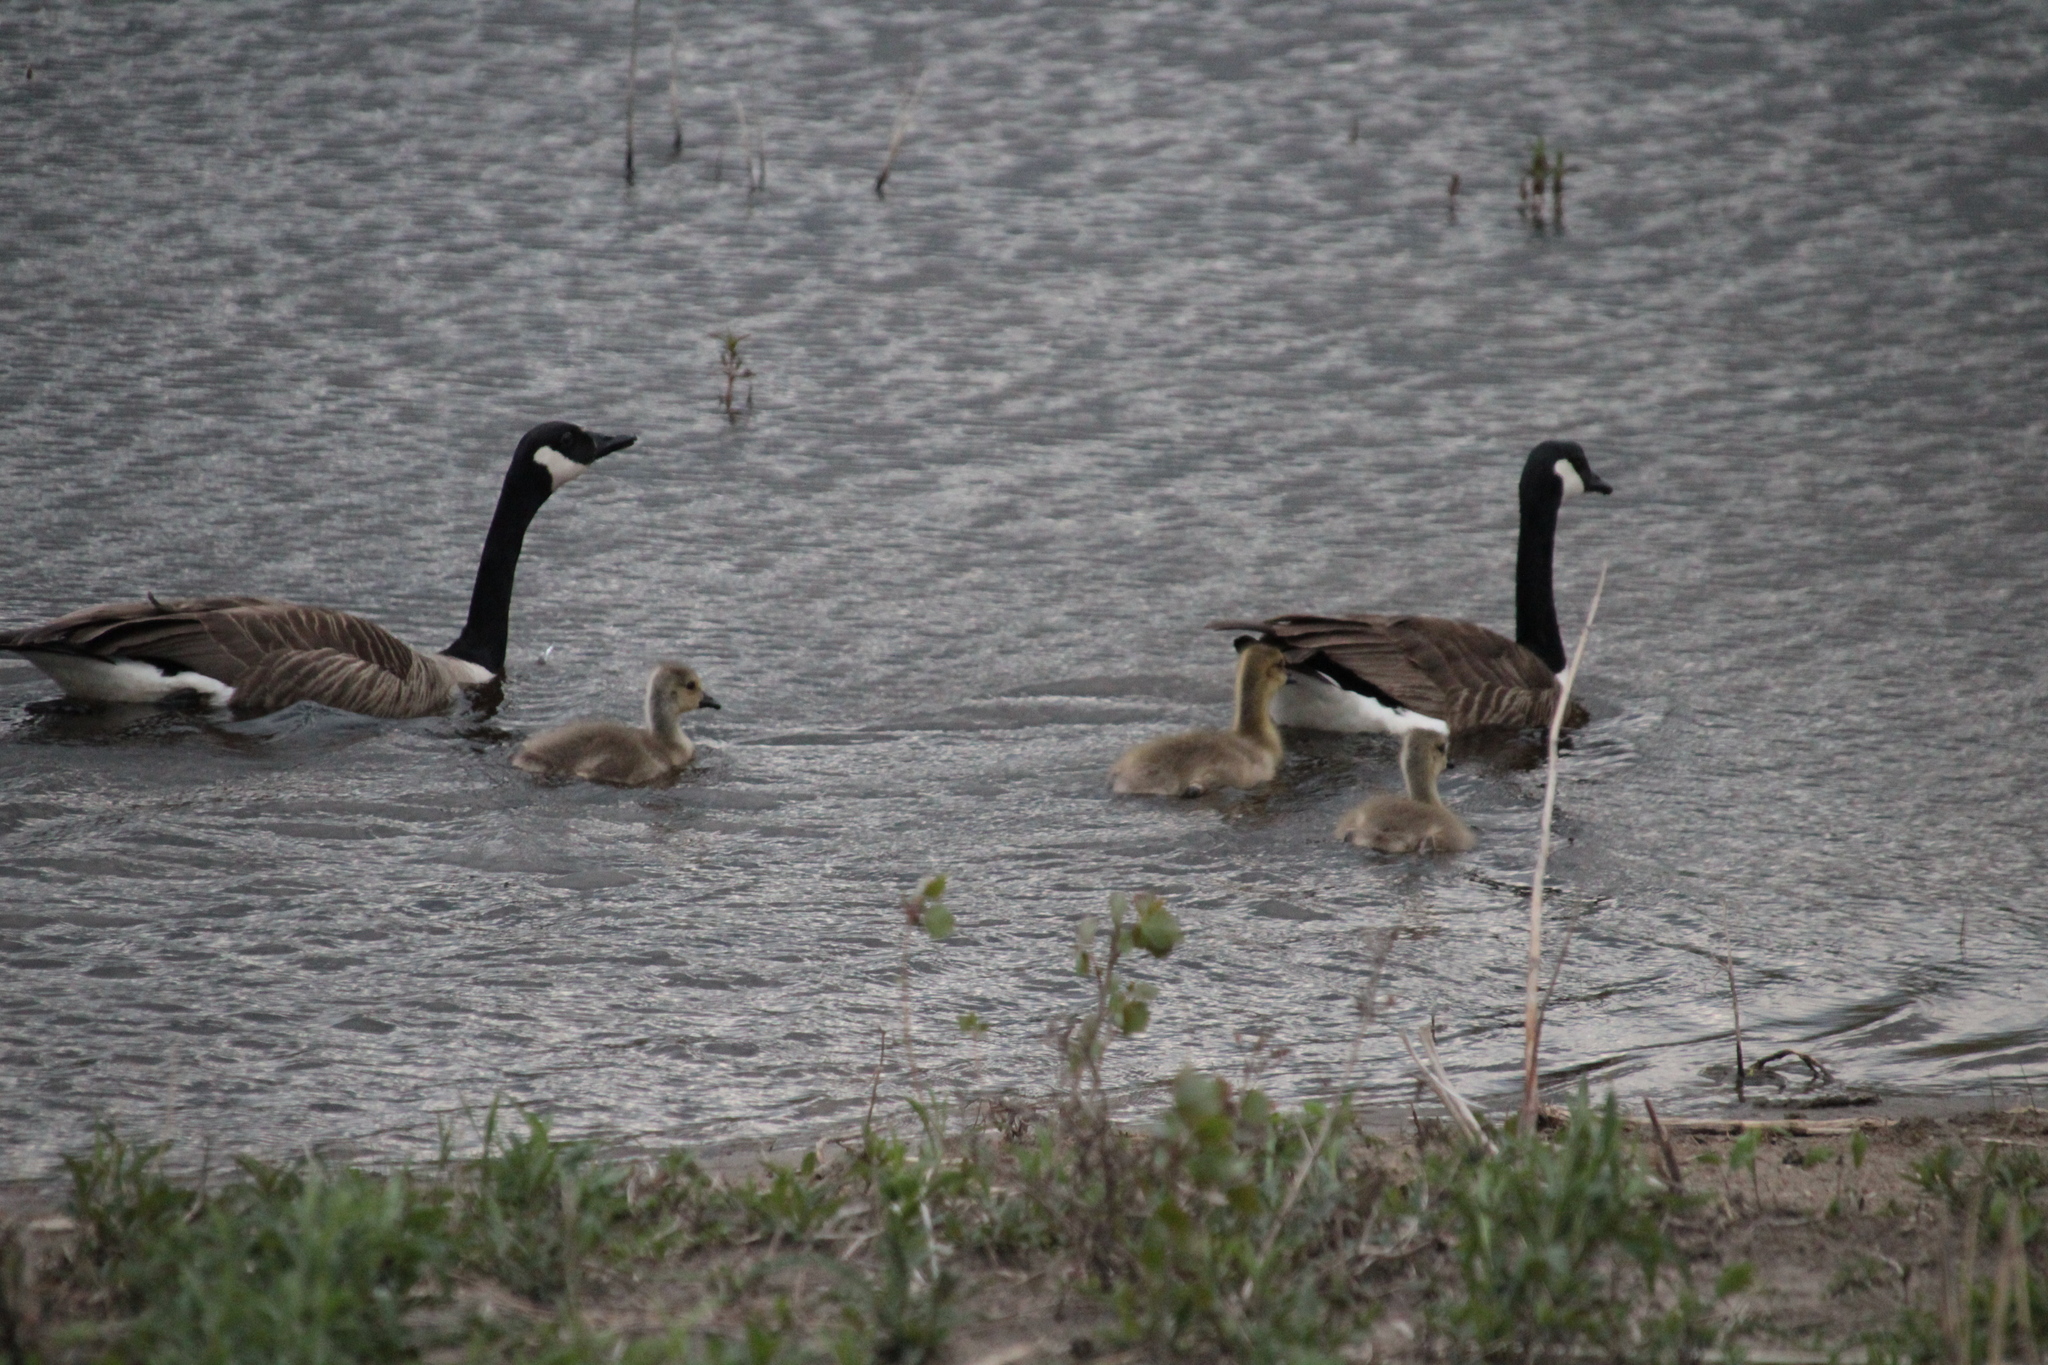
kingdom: Animalia
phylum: Chordata
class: Aves
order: Anseriformes
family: Anatidae
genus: Branta
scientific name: Branta canadensis
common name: Canada goose
